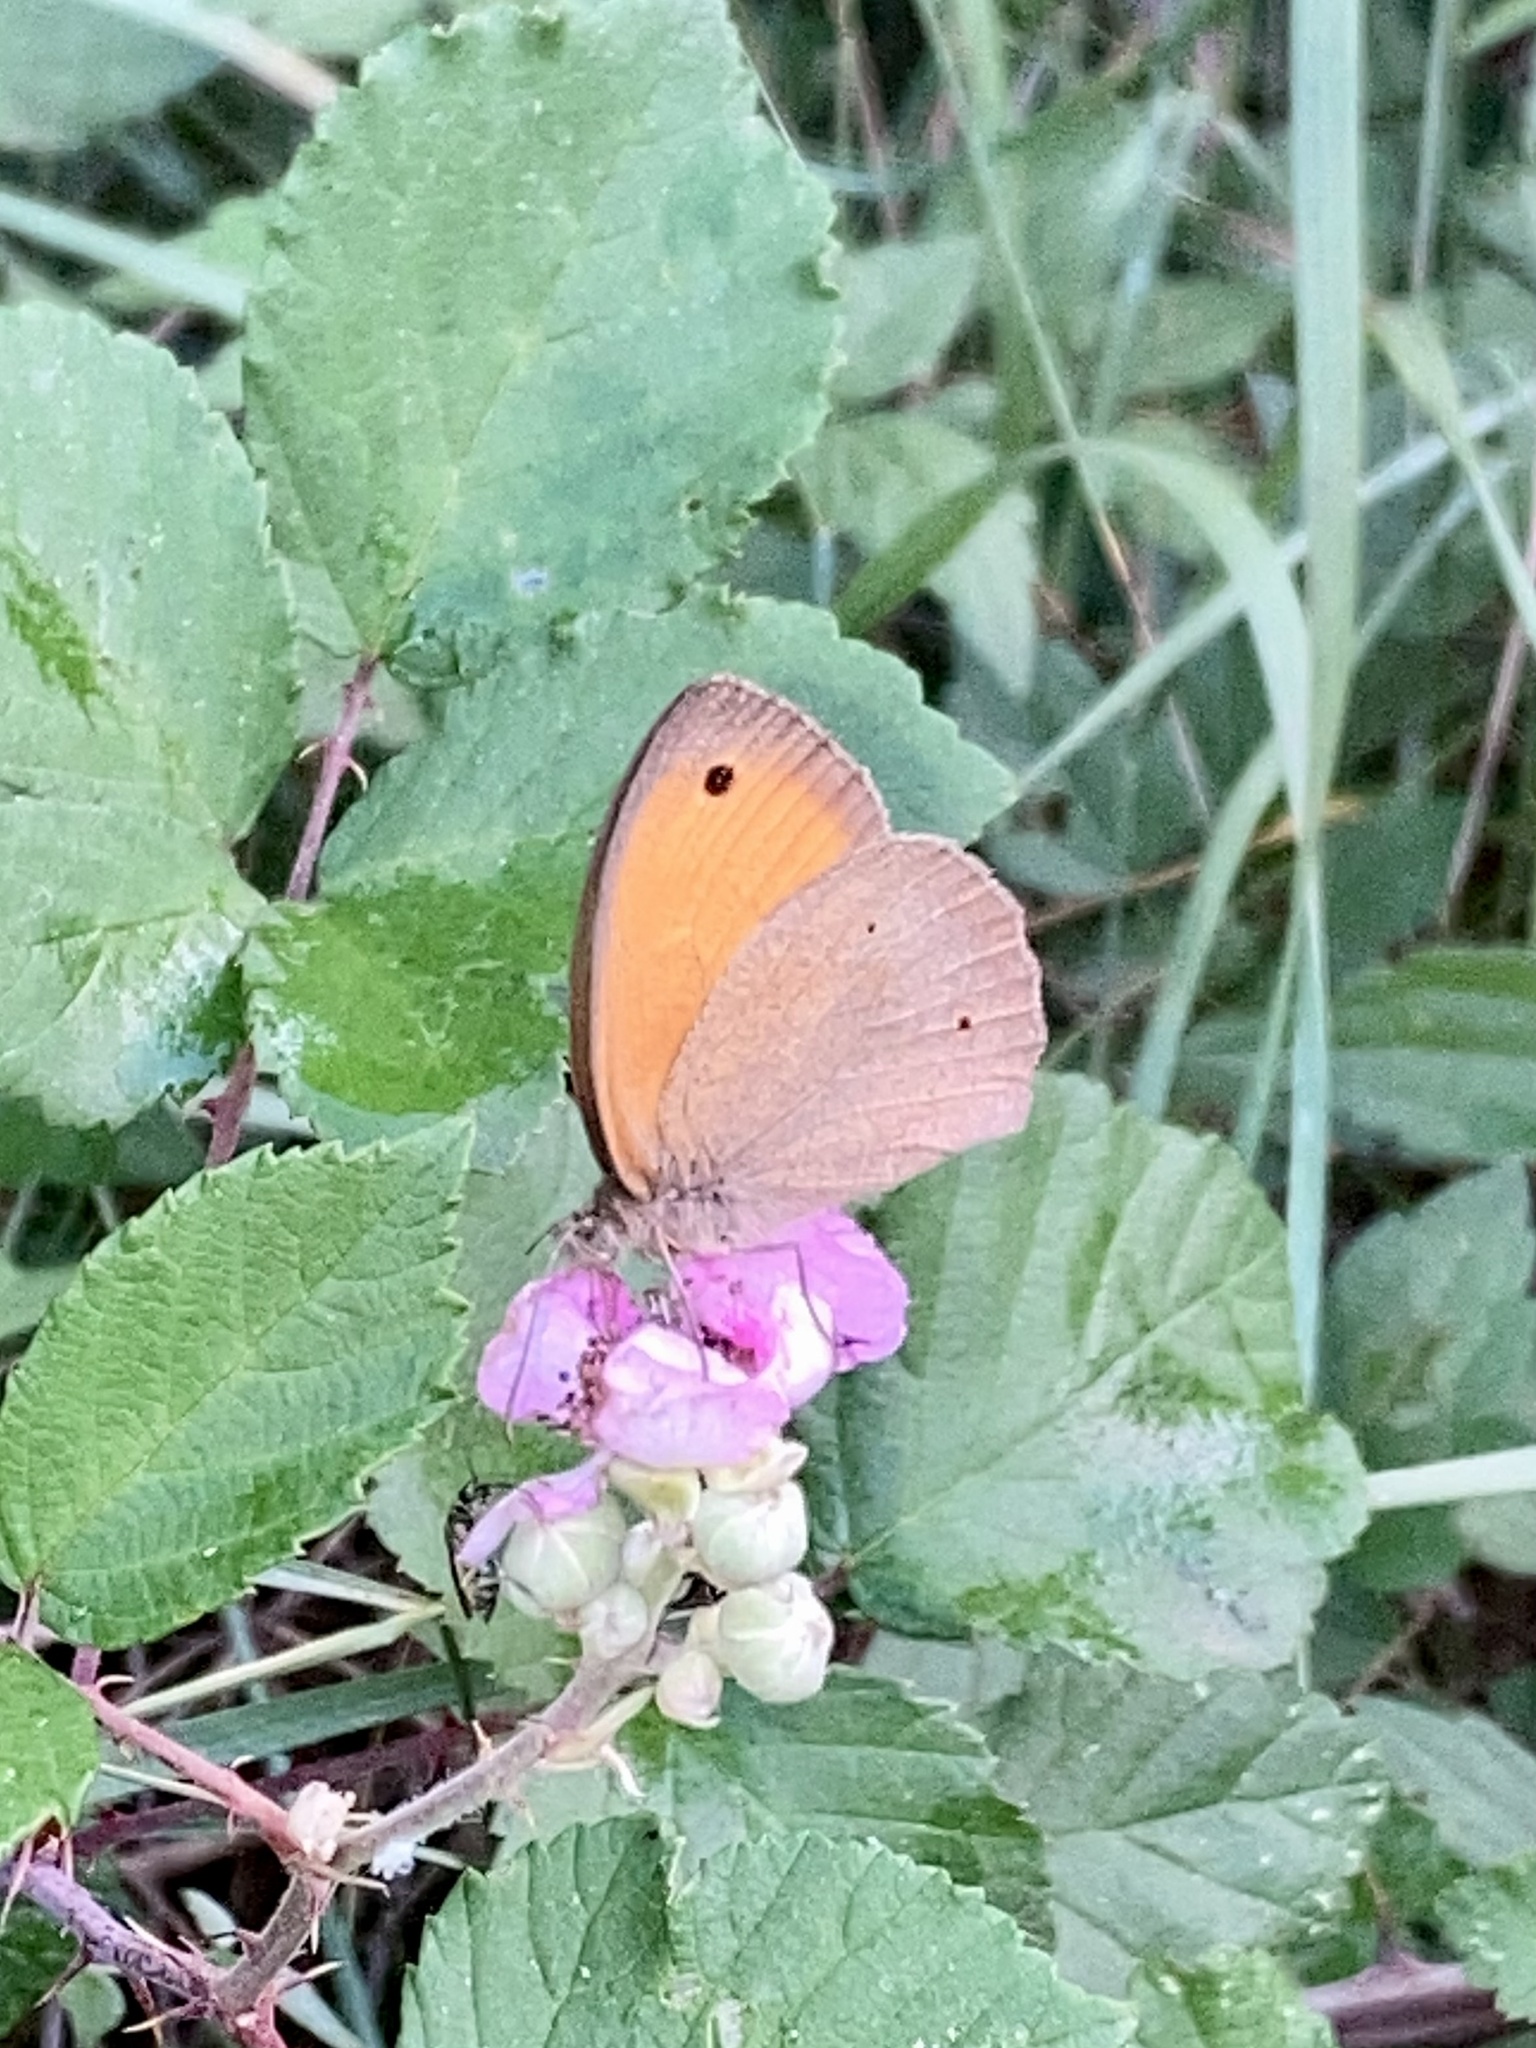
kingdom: Animalia
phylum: Arthropoda
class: Insecta
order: Lepidoptera
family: Nymphalidae
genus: Maniola
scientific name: Maniola jurtina
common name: Meadow brown
